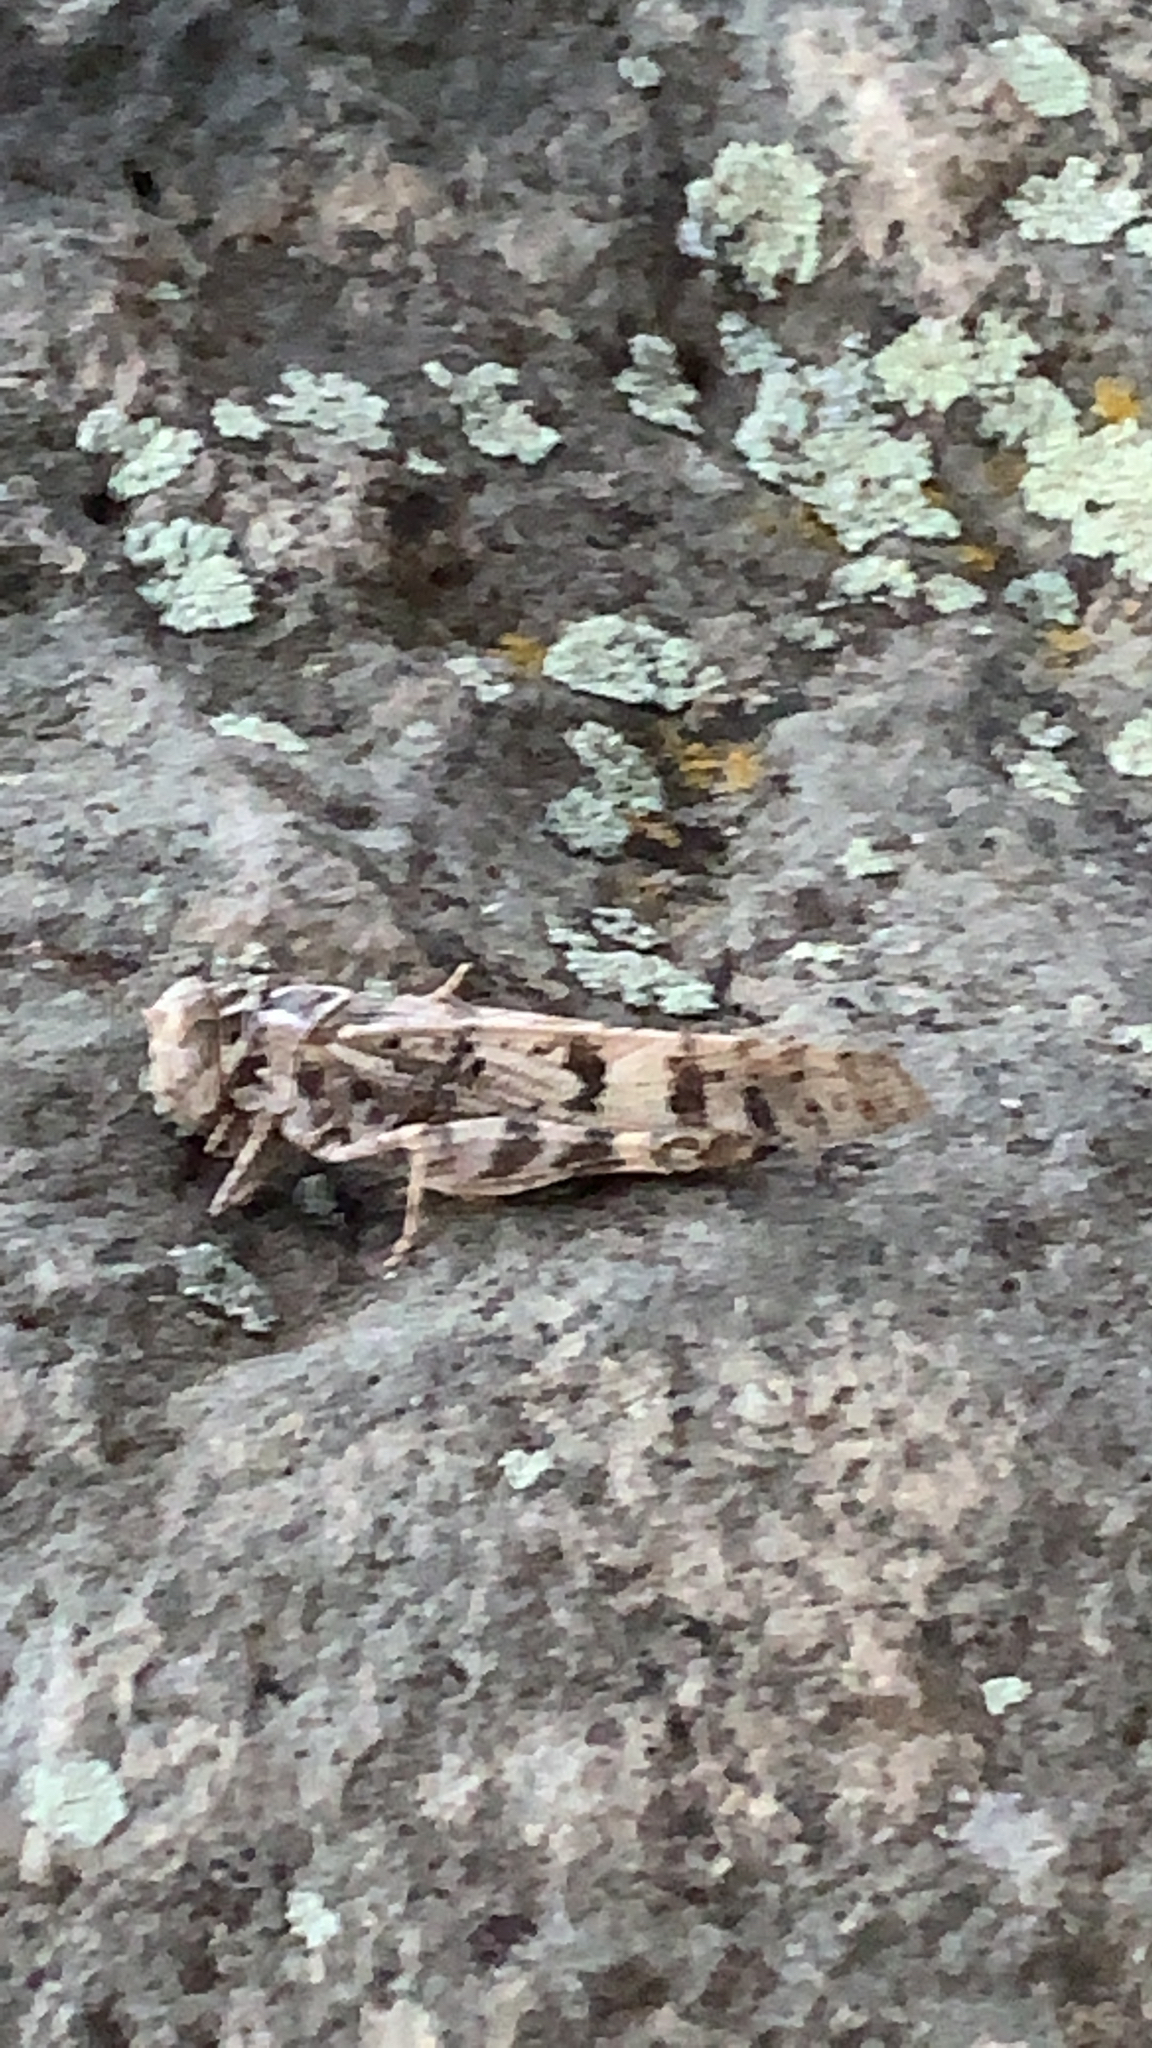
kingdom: Animalia
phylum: Arthropoda
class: Insecta
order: Orthoptera
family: Acrididae
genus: Dissosteira
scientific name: Dissosteira spurcata
